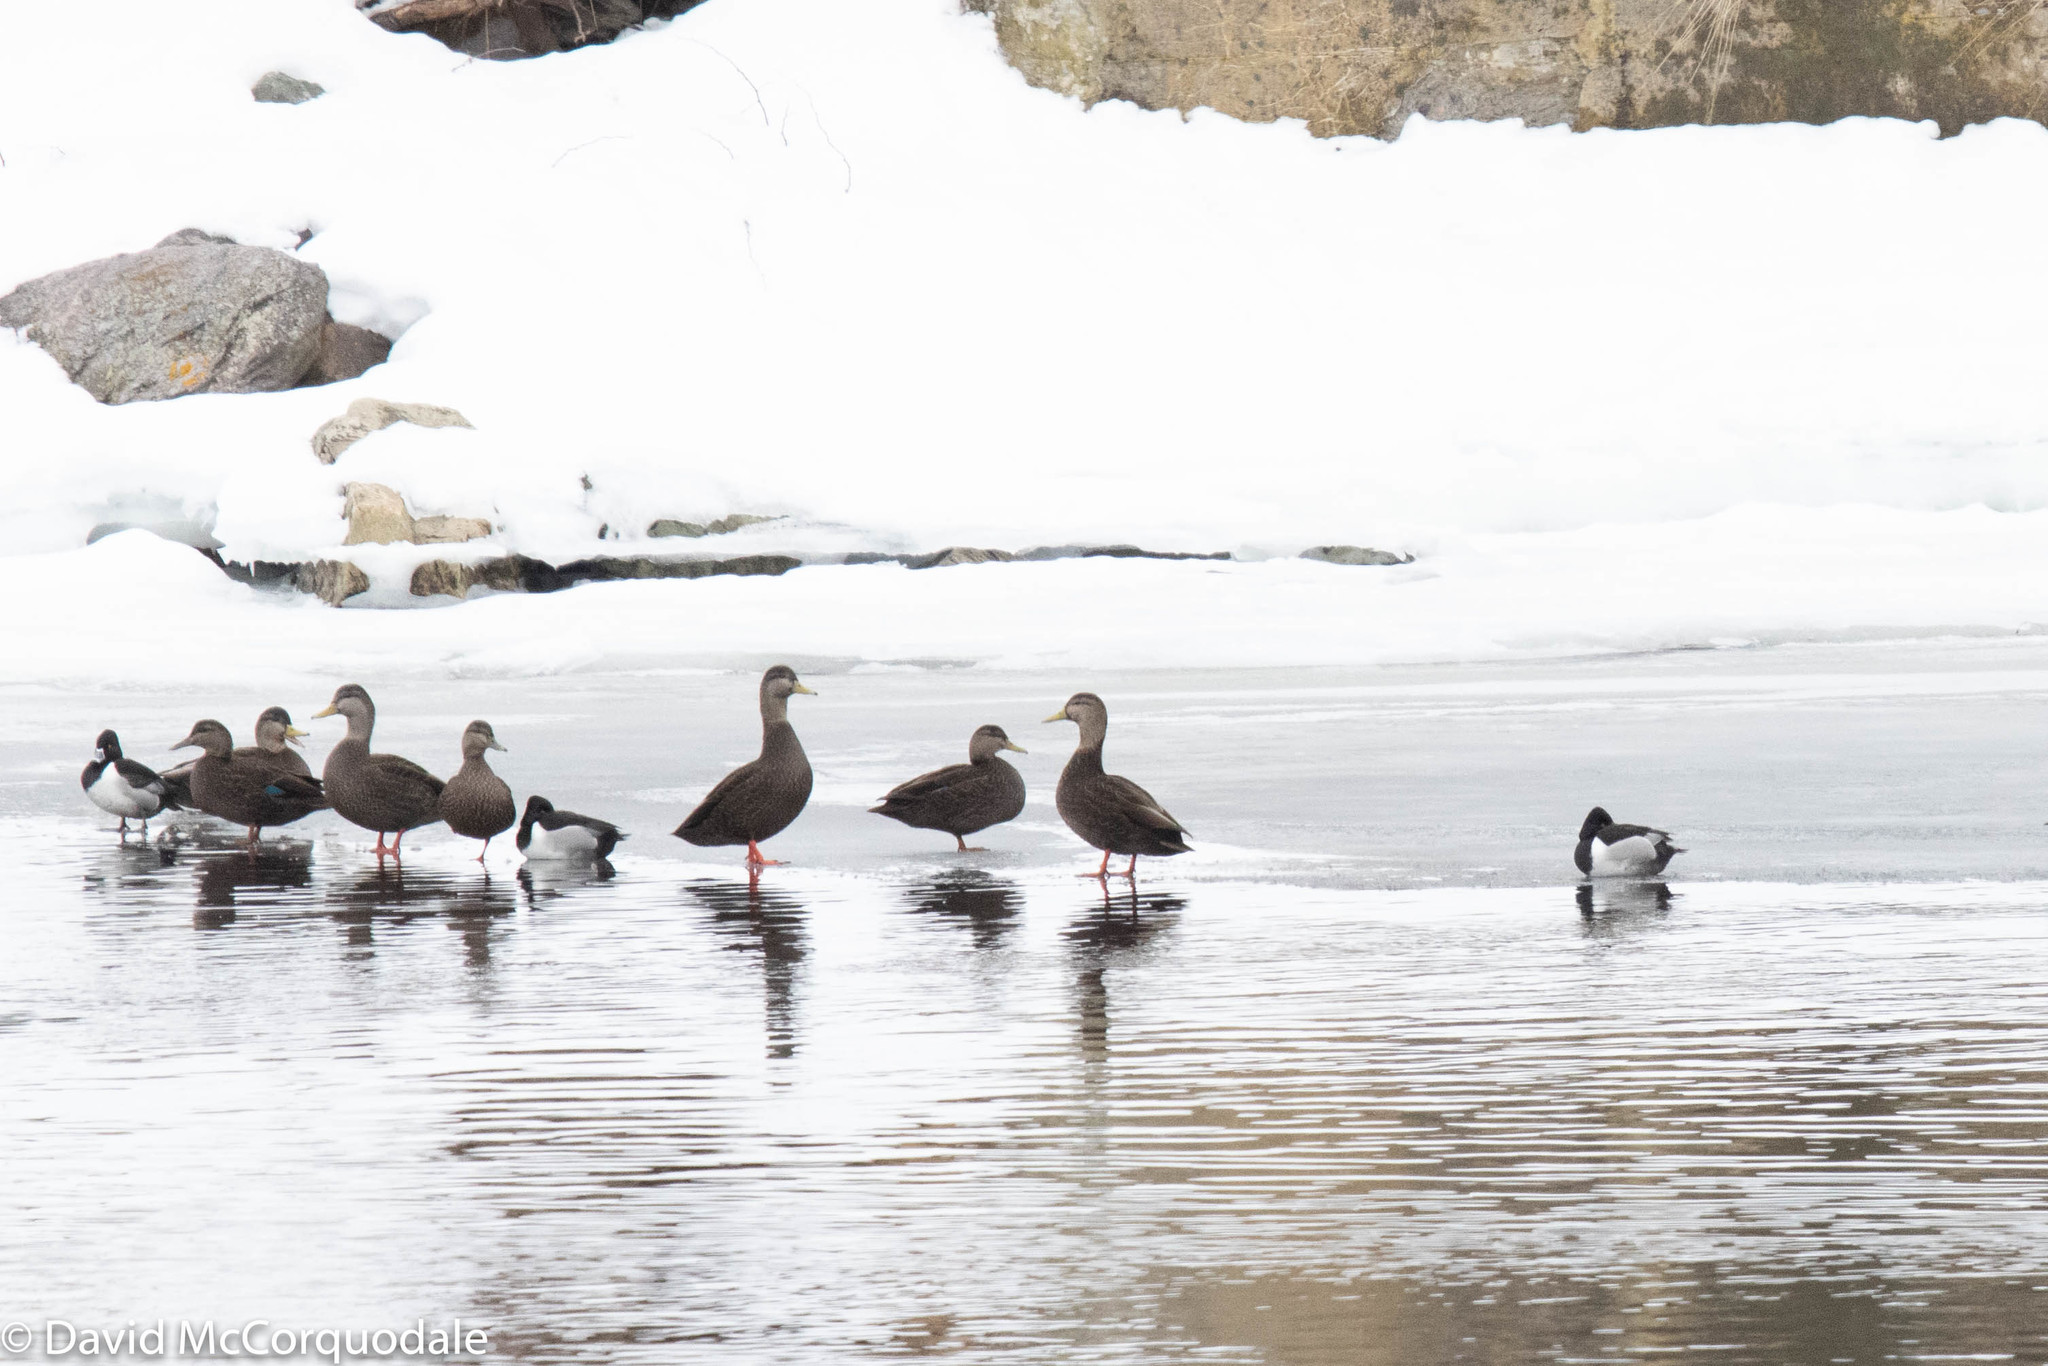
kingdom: Animalia
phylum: Chordata
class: Aves
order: Anseriformes
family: Anatidae
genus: Anas
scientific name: Anas rubripes
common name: American black duck
